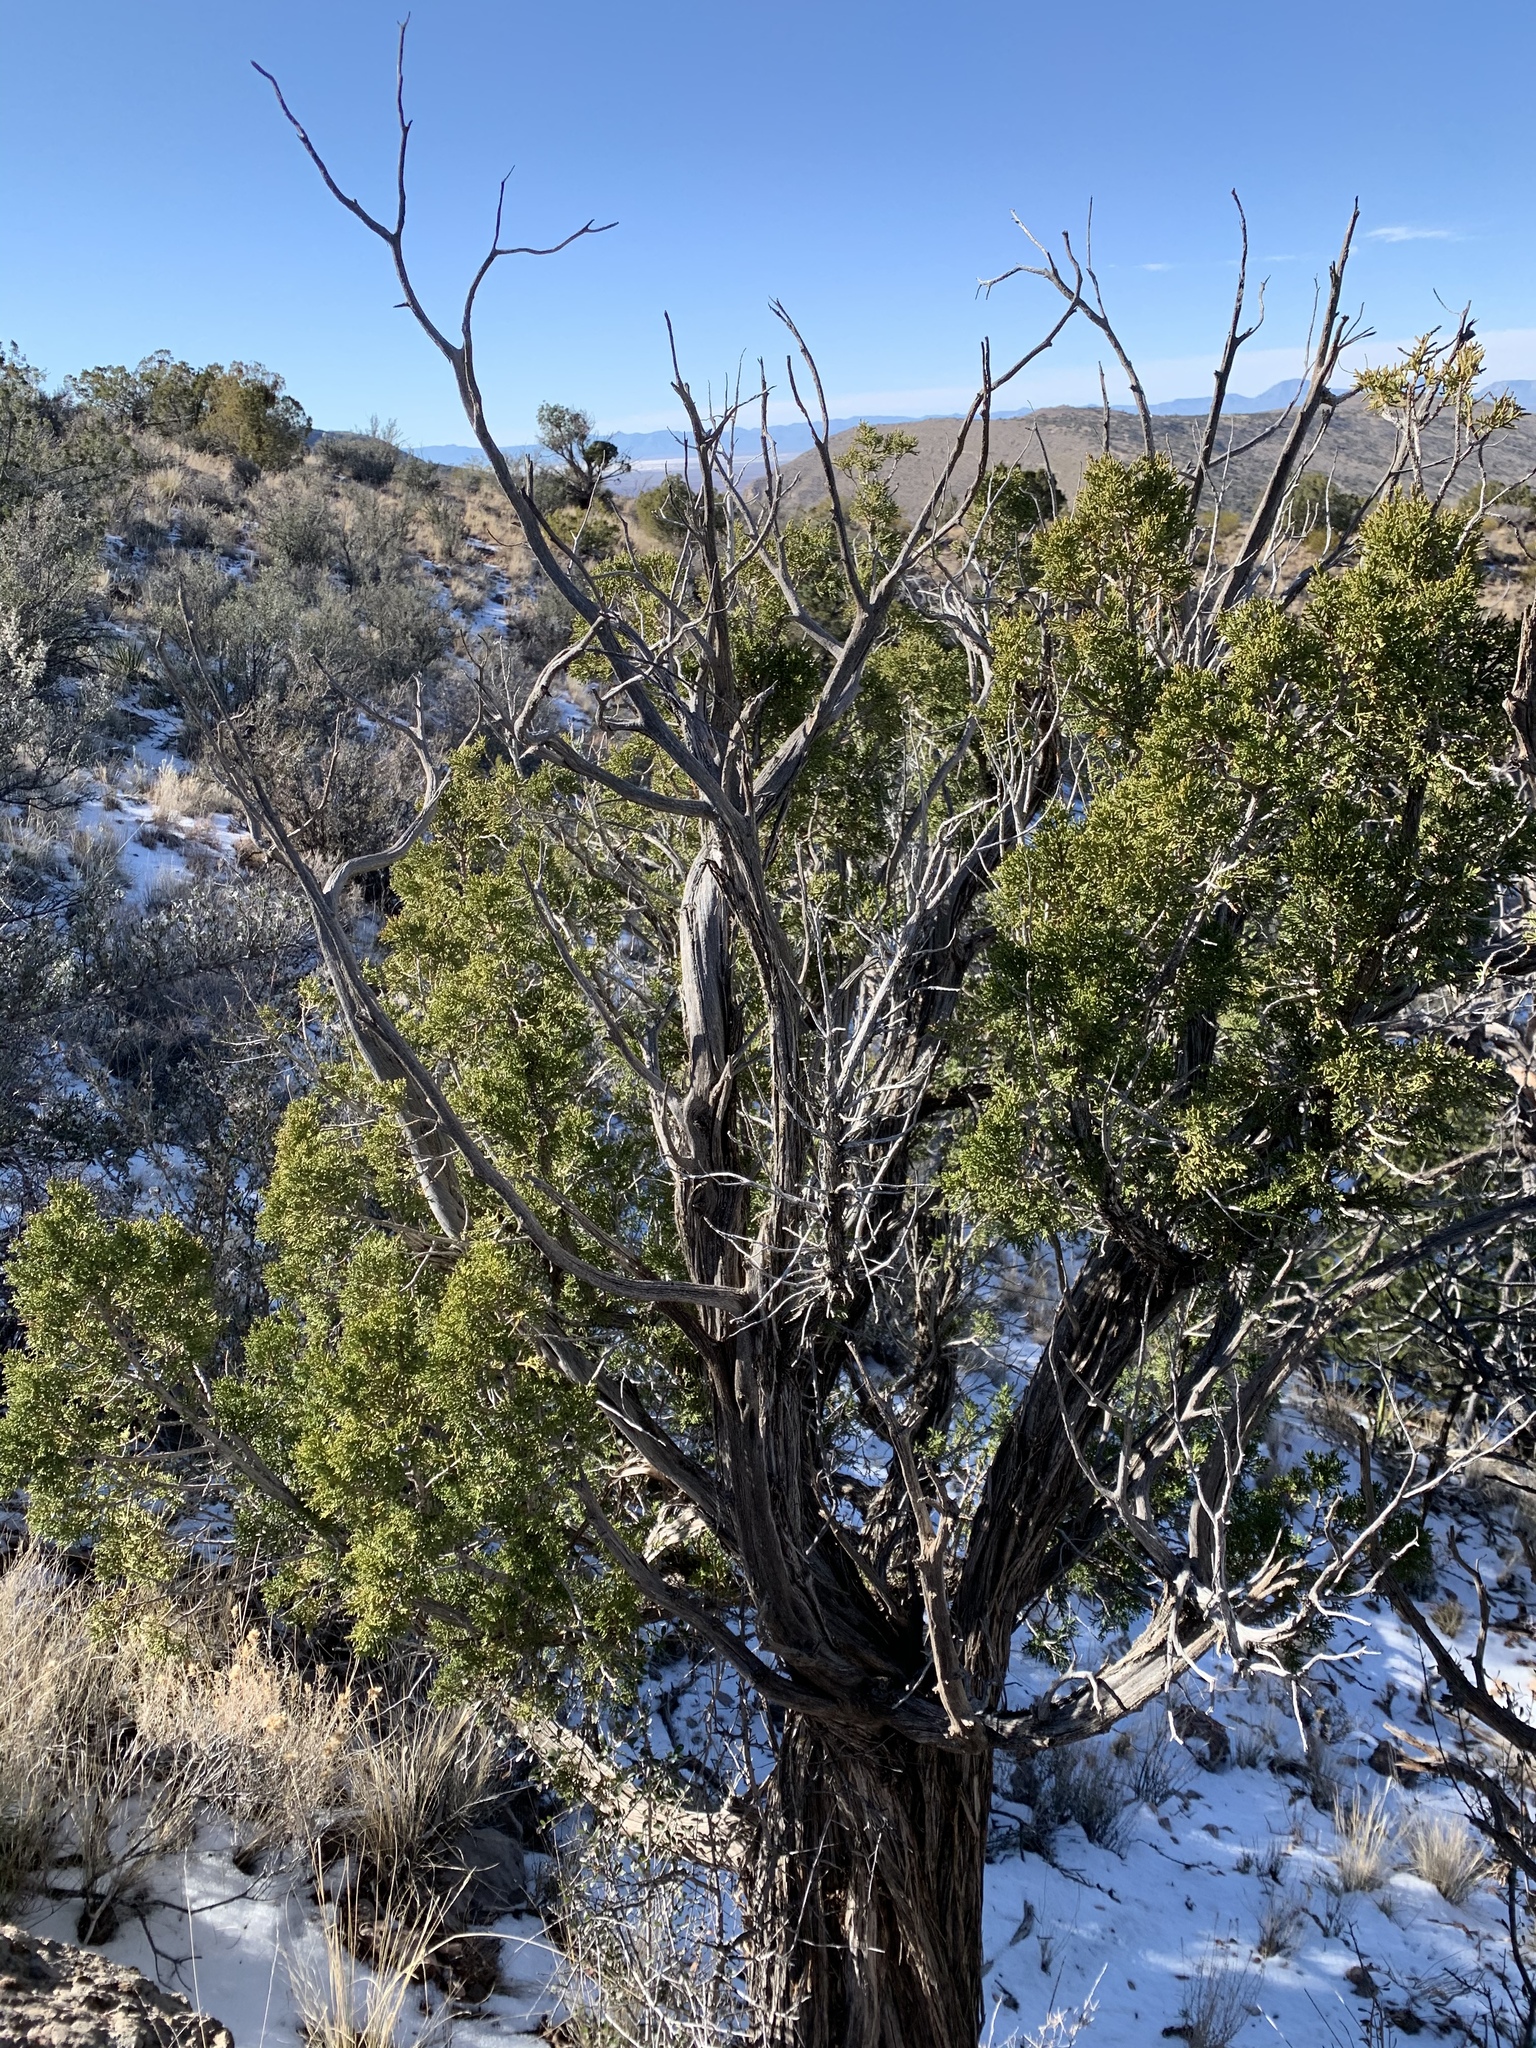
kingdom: Plantae
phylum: Tracheophyta
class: Pinopsida
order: Pinales
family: Cupressaceae
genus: Juniperus
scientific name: Juniperus monosperma
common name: One-seed juniper
